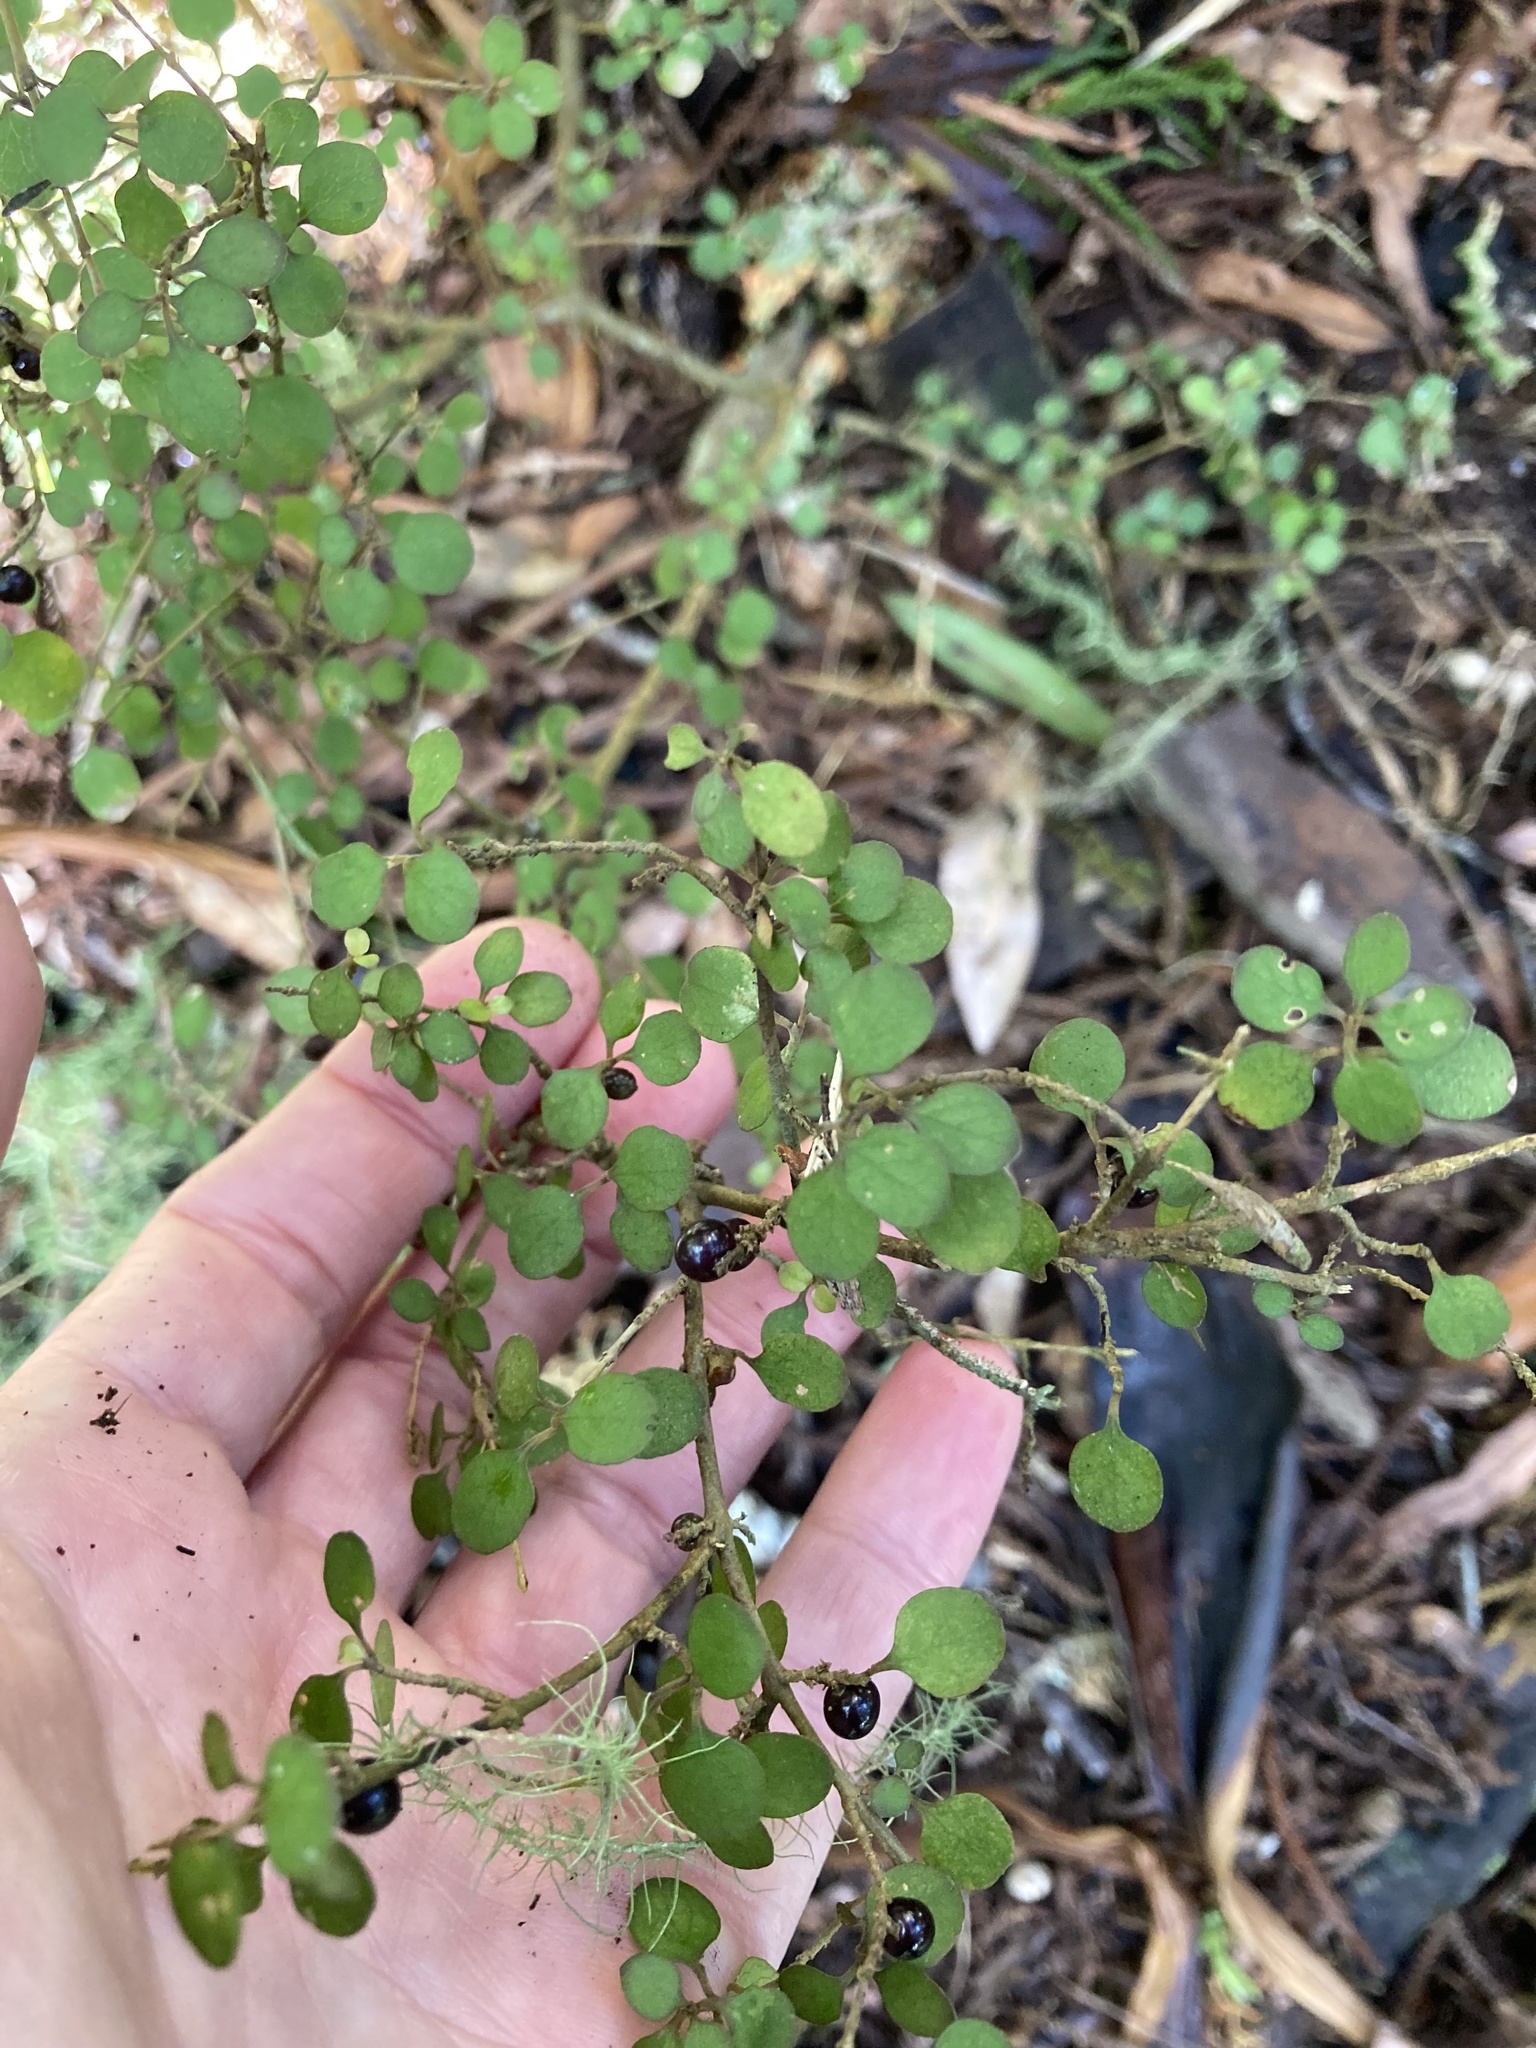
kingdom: Plantae
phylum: Tracheophyta
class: Magnoliopsida
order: Gentianales
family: Rubiaceae
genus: Coprosma
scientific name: Coprosma rhamnoides
